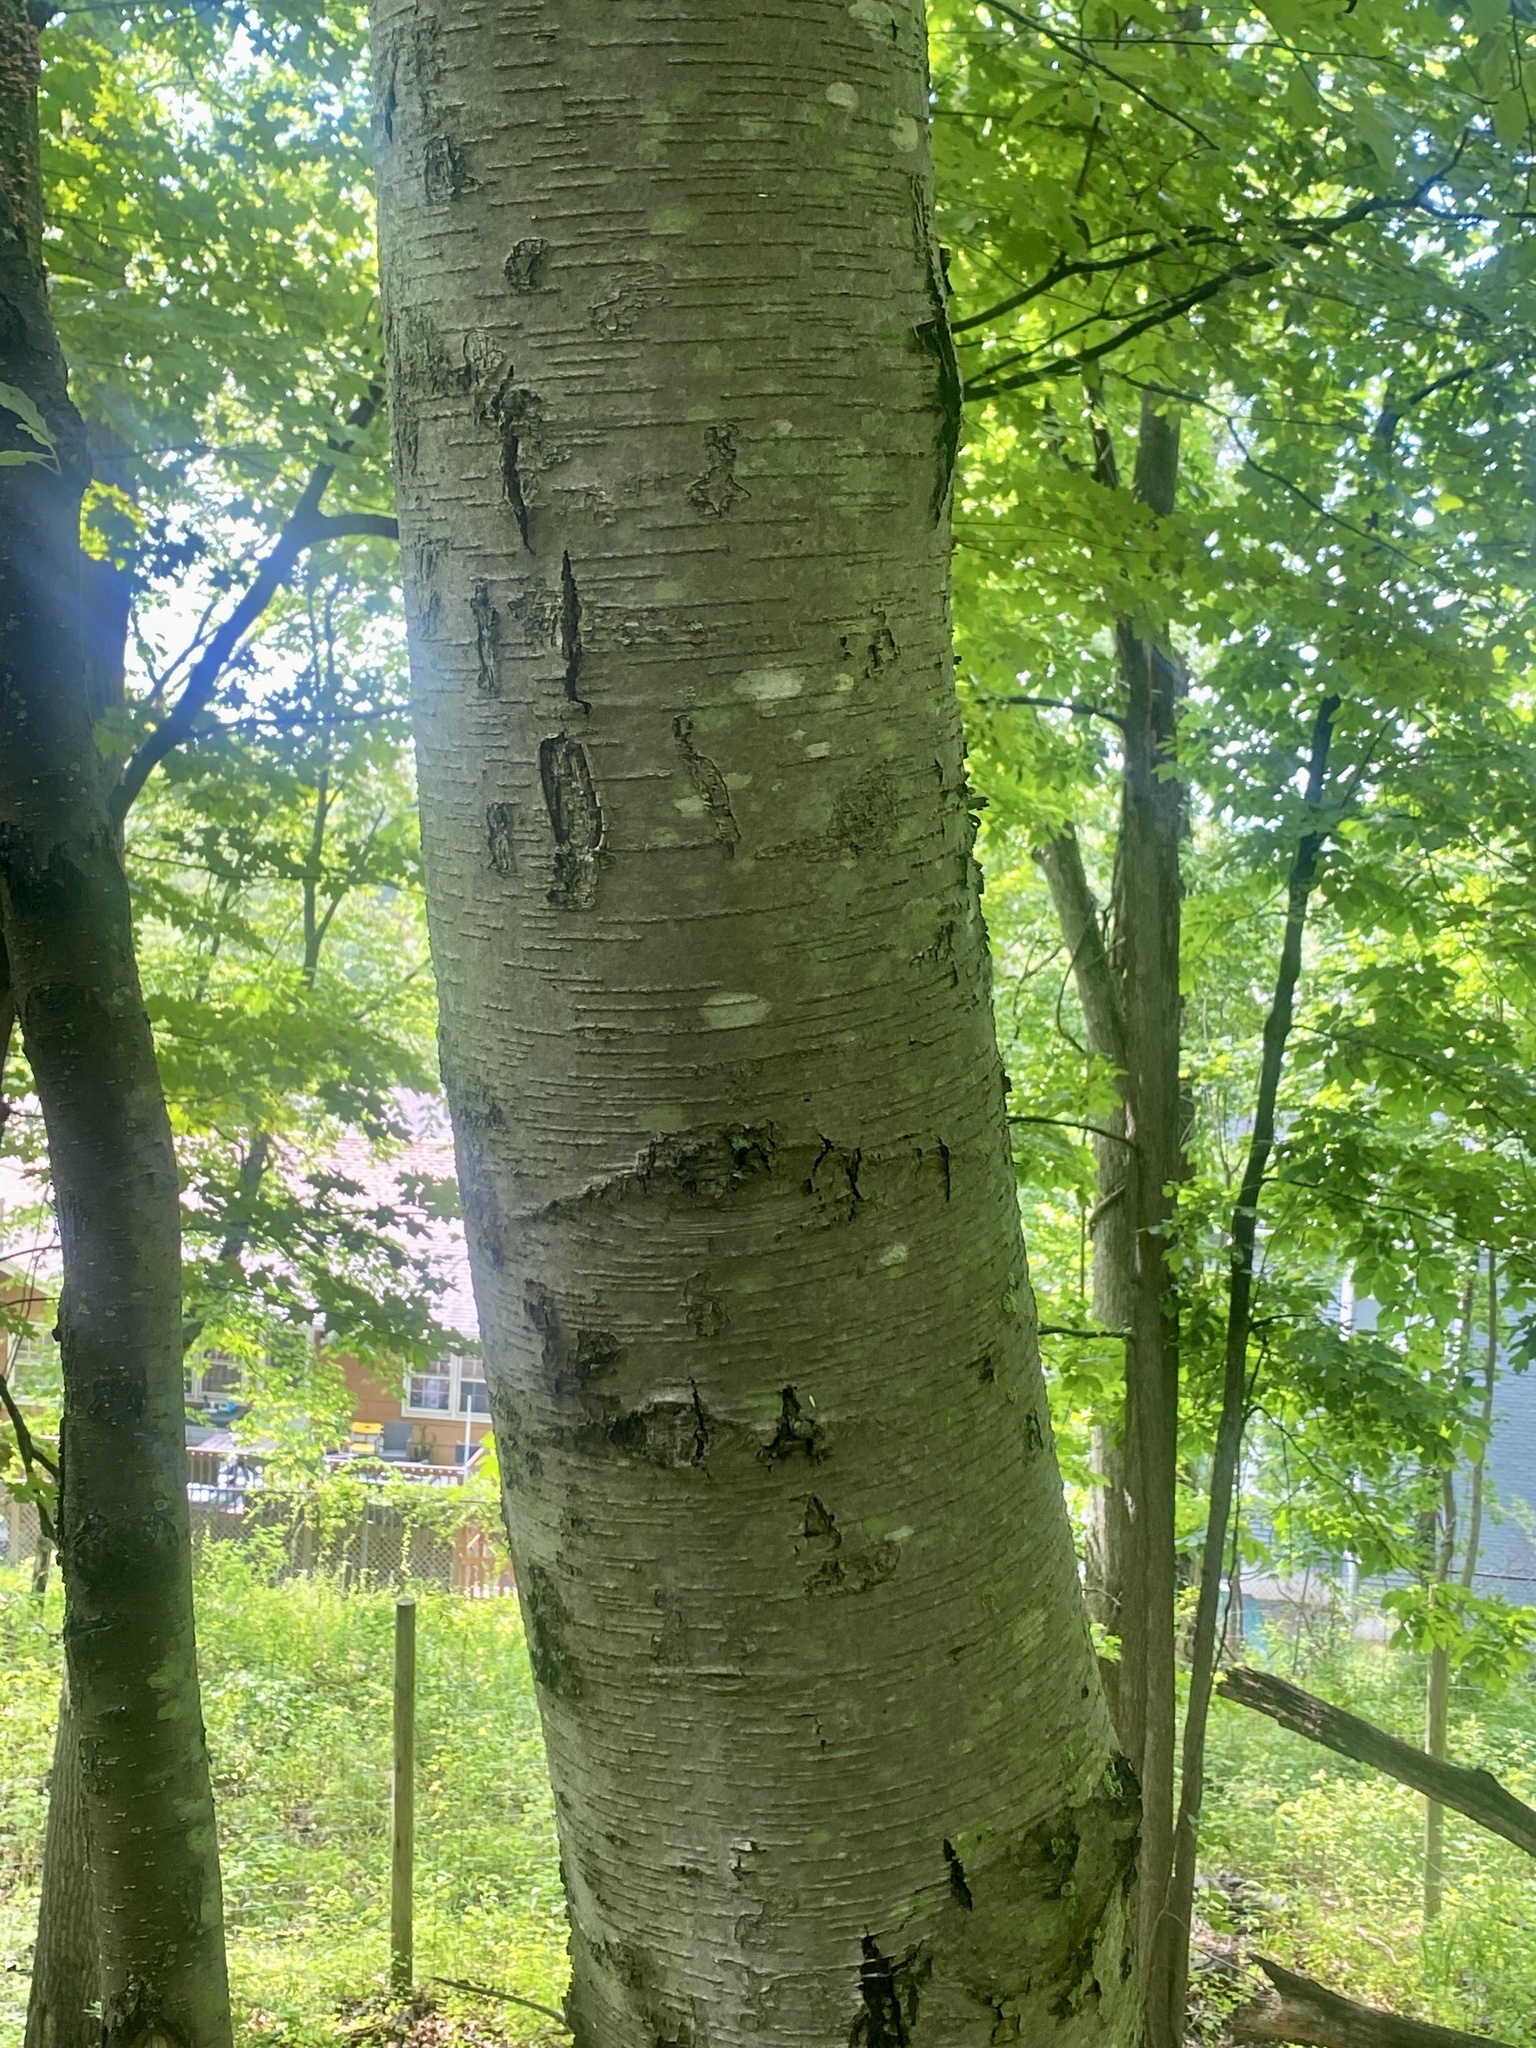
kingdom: Plantae
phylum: Tracheophyta
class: Magnoliopsida
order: Fagales
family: Betulaceae
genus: Betula
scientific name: Betula lenta
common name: Black birch
